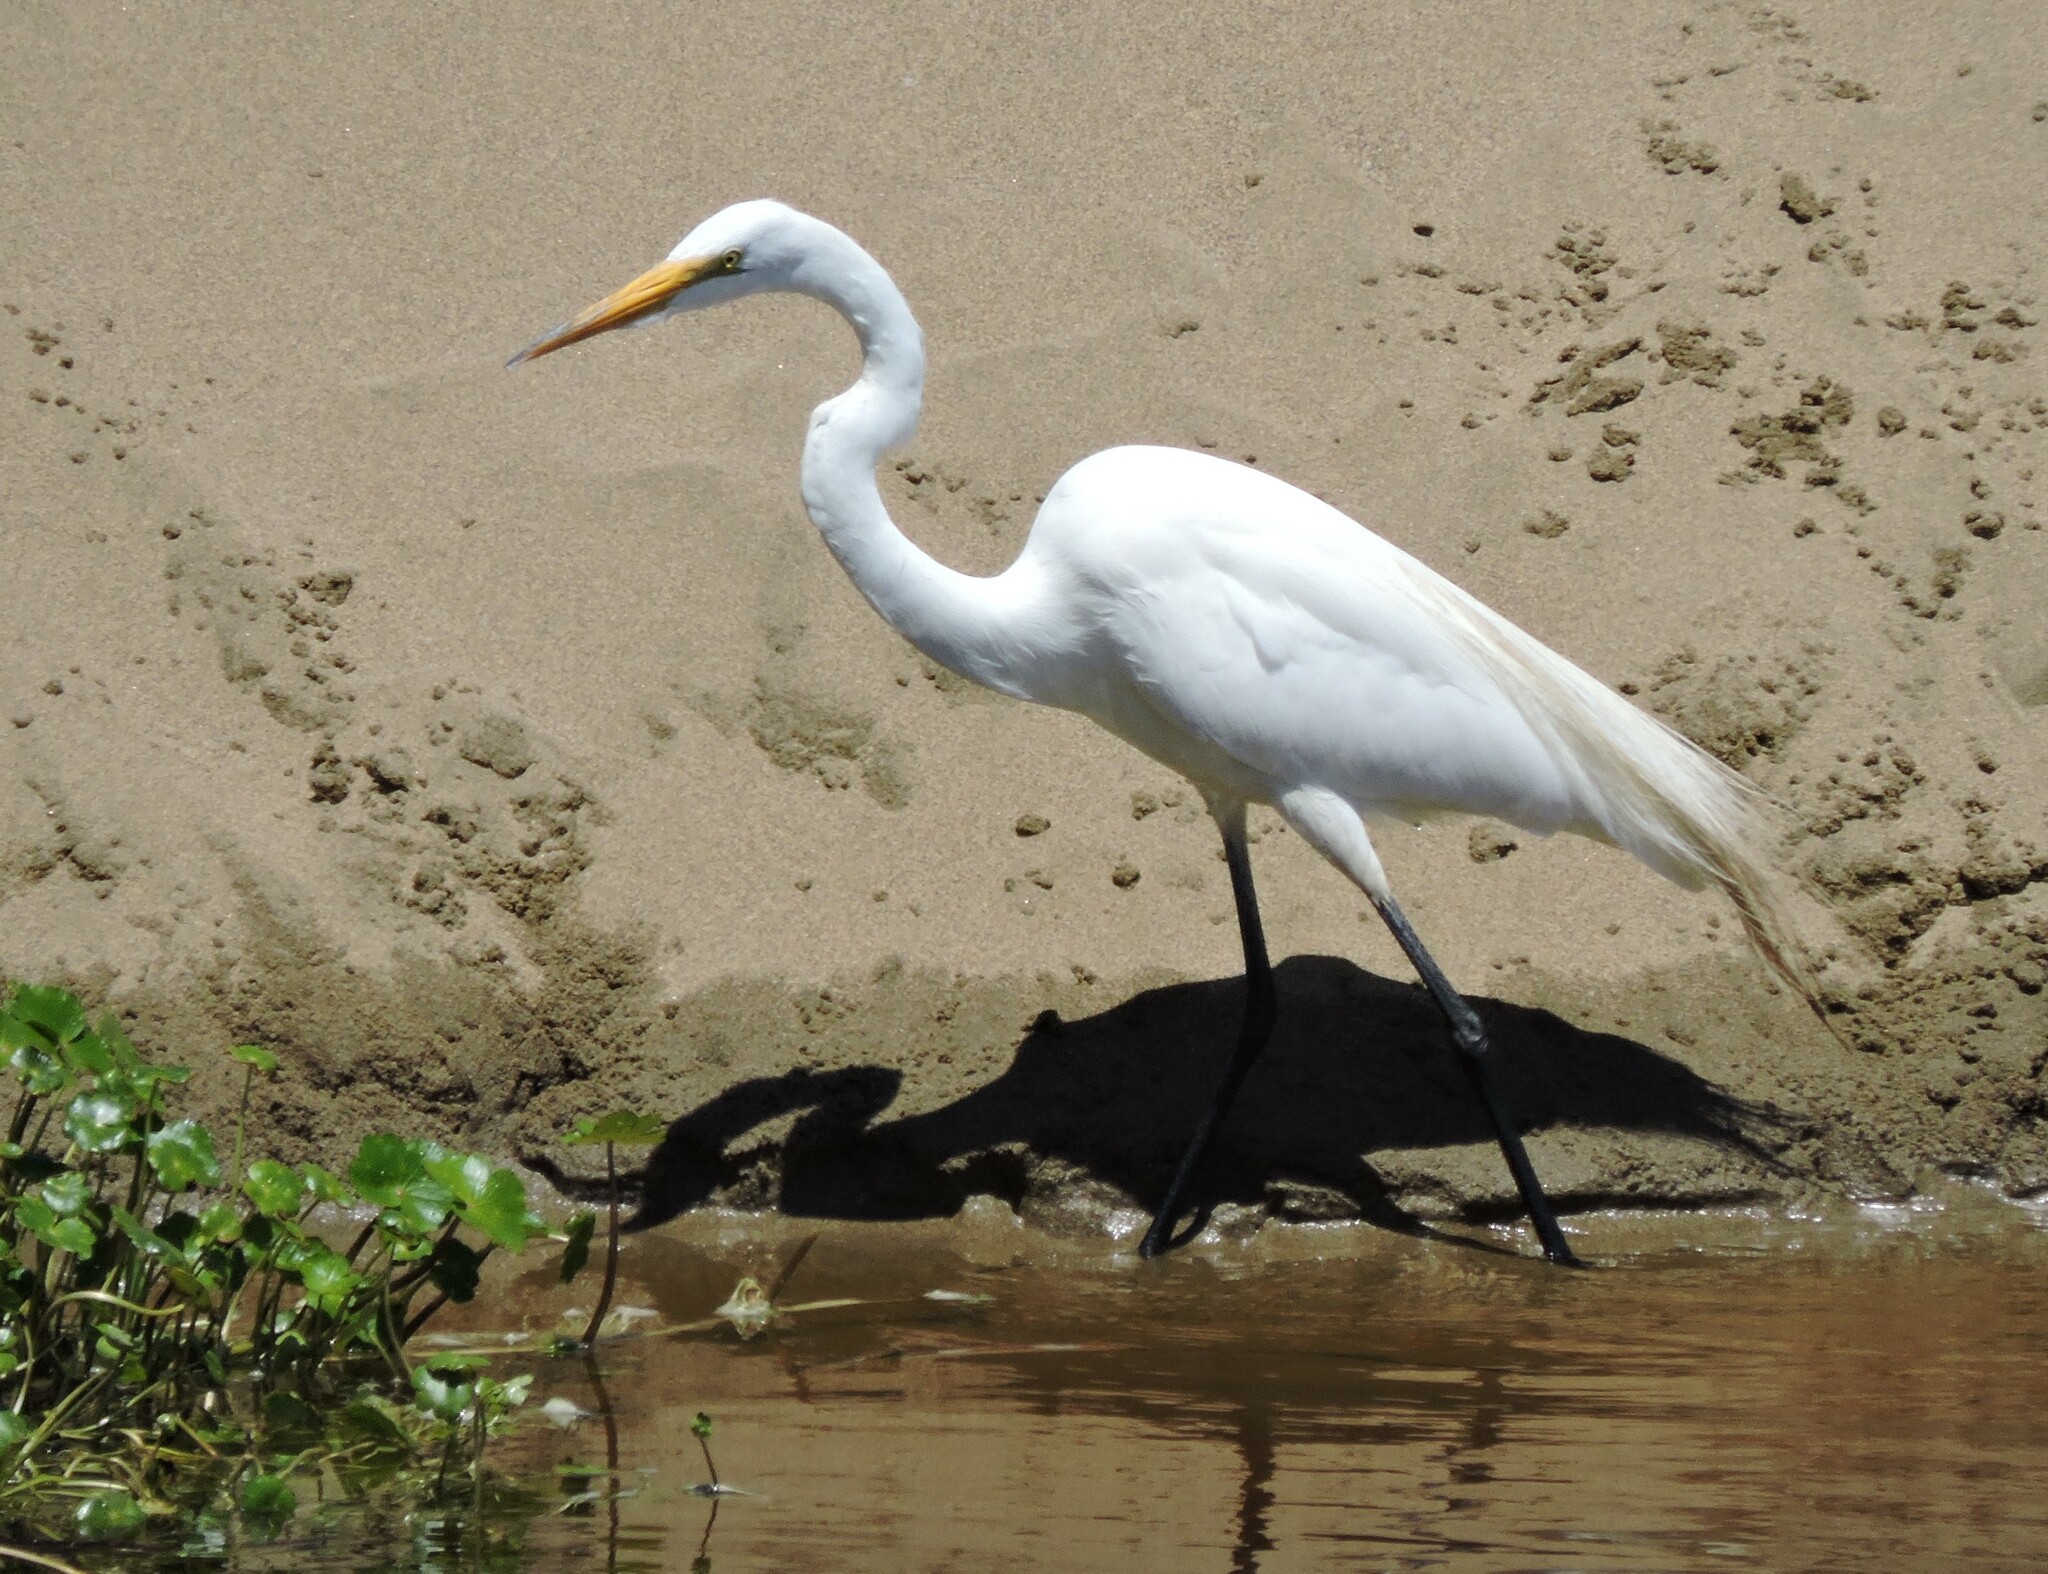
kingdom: Animalia
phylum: Chordata
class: Aves
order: Pelecaniformes
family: Ardeidae
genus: Ardea
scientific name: Ardea alba
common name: Great egret
